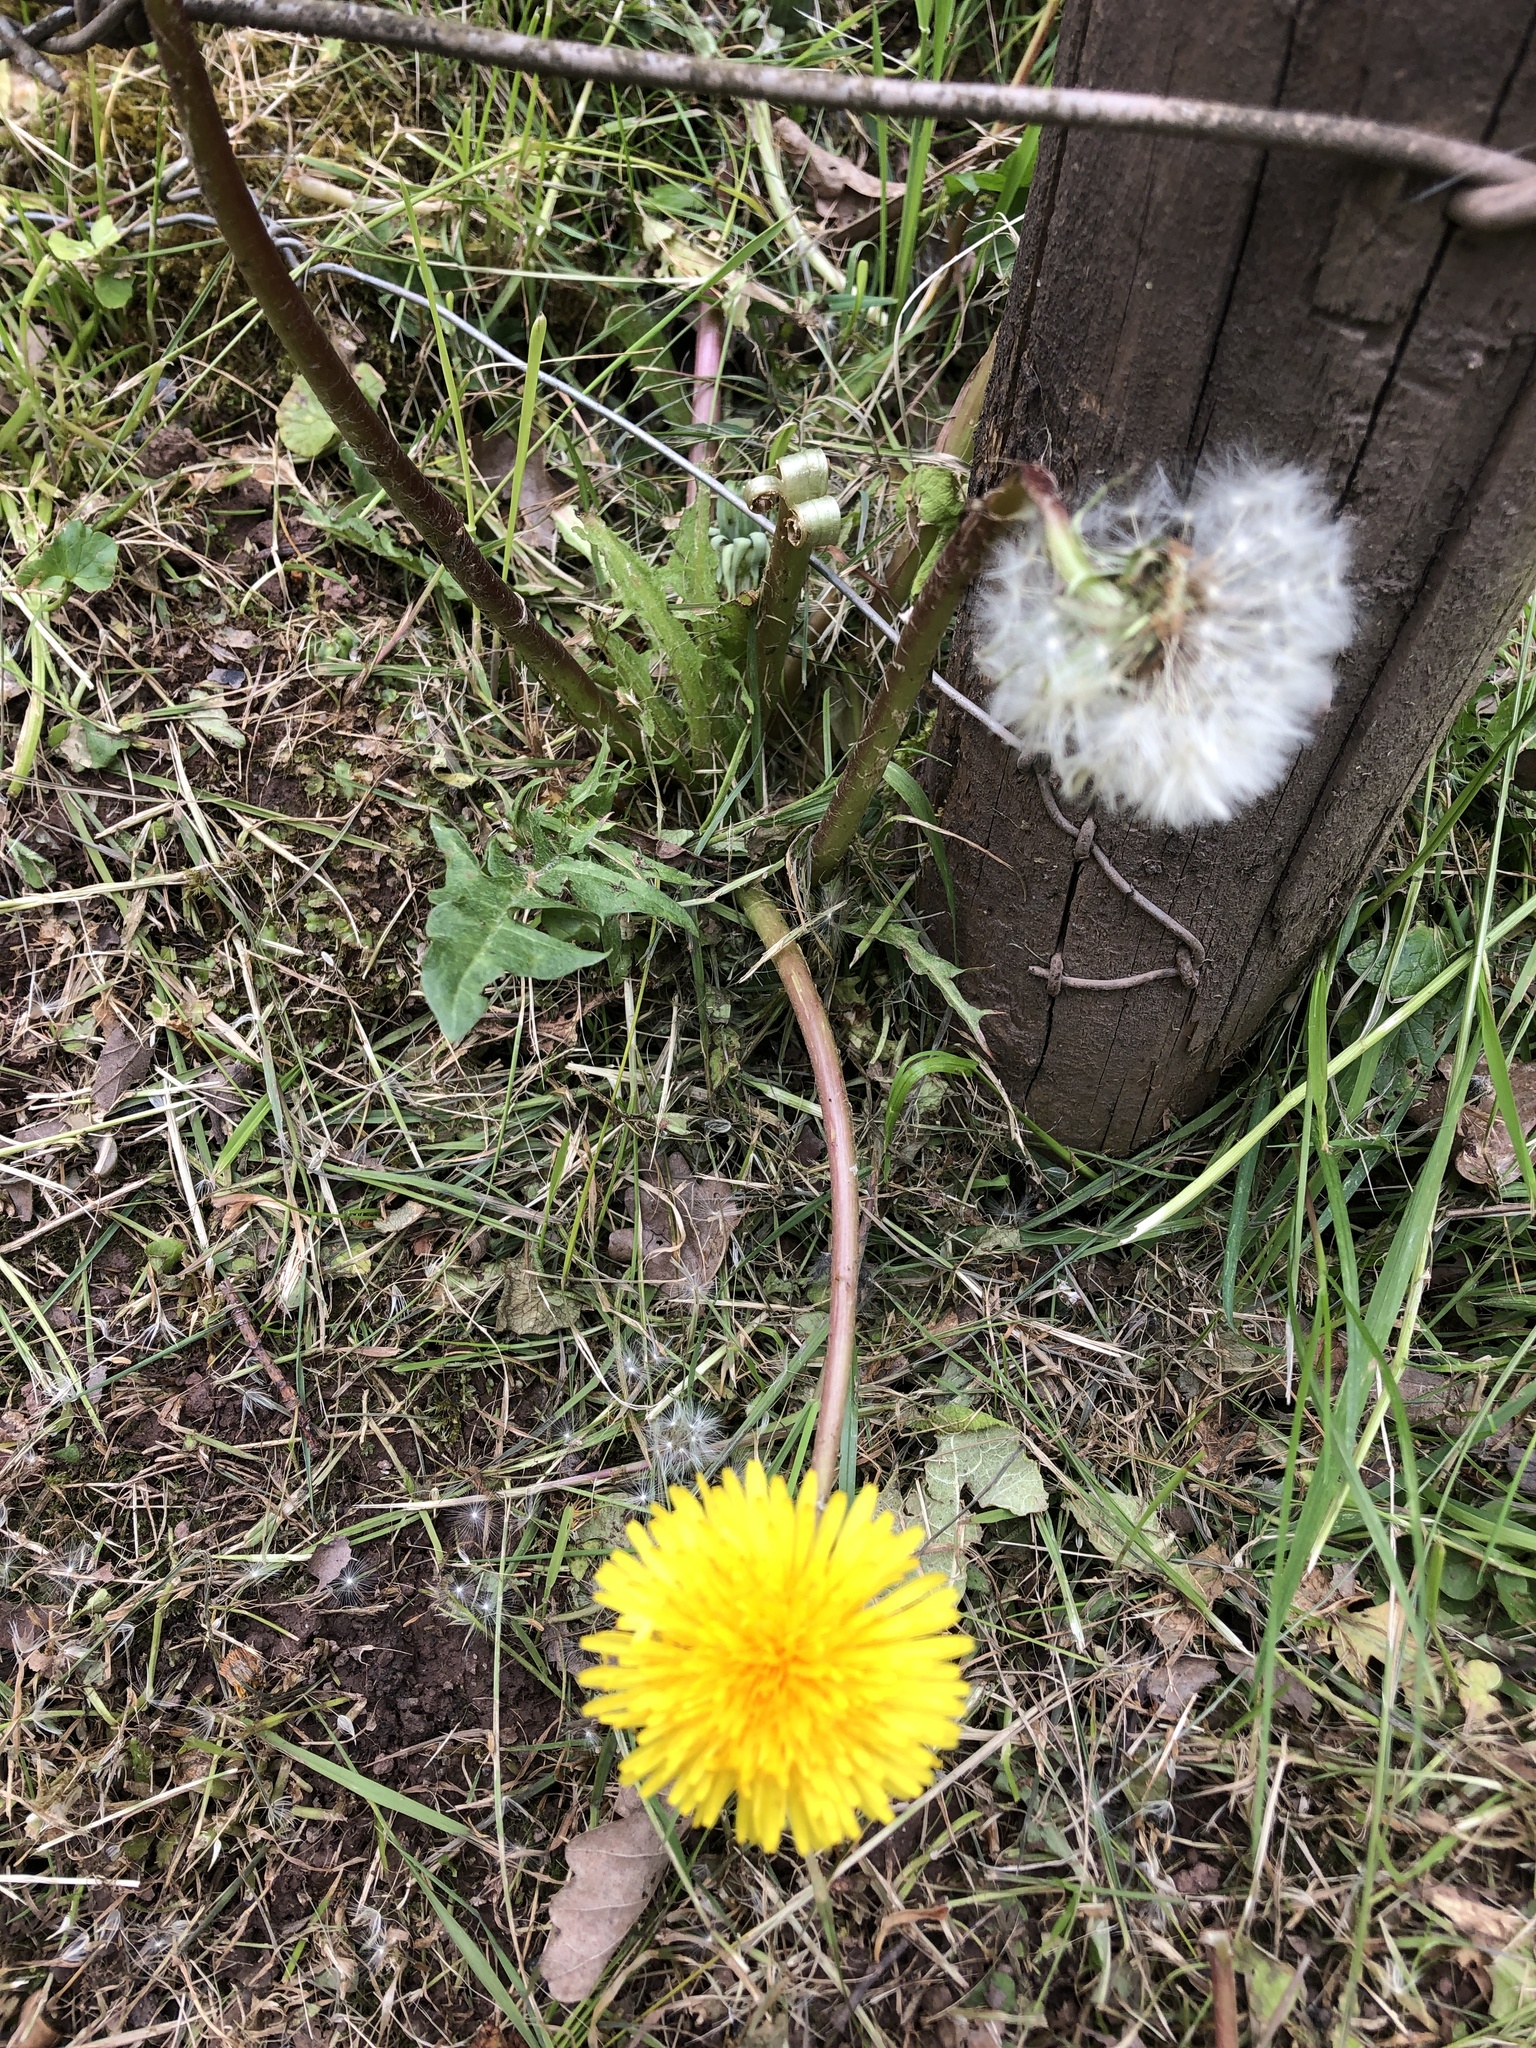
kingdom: Plantae
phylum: Tracheophyta
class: Magnoliopsida
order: Asterales
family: Asteraceae
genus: Taraxacum
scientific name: Taraxacum
